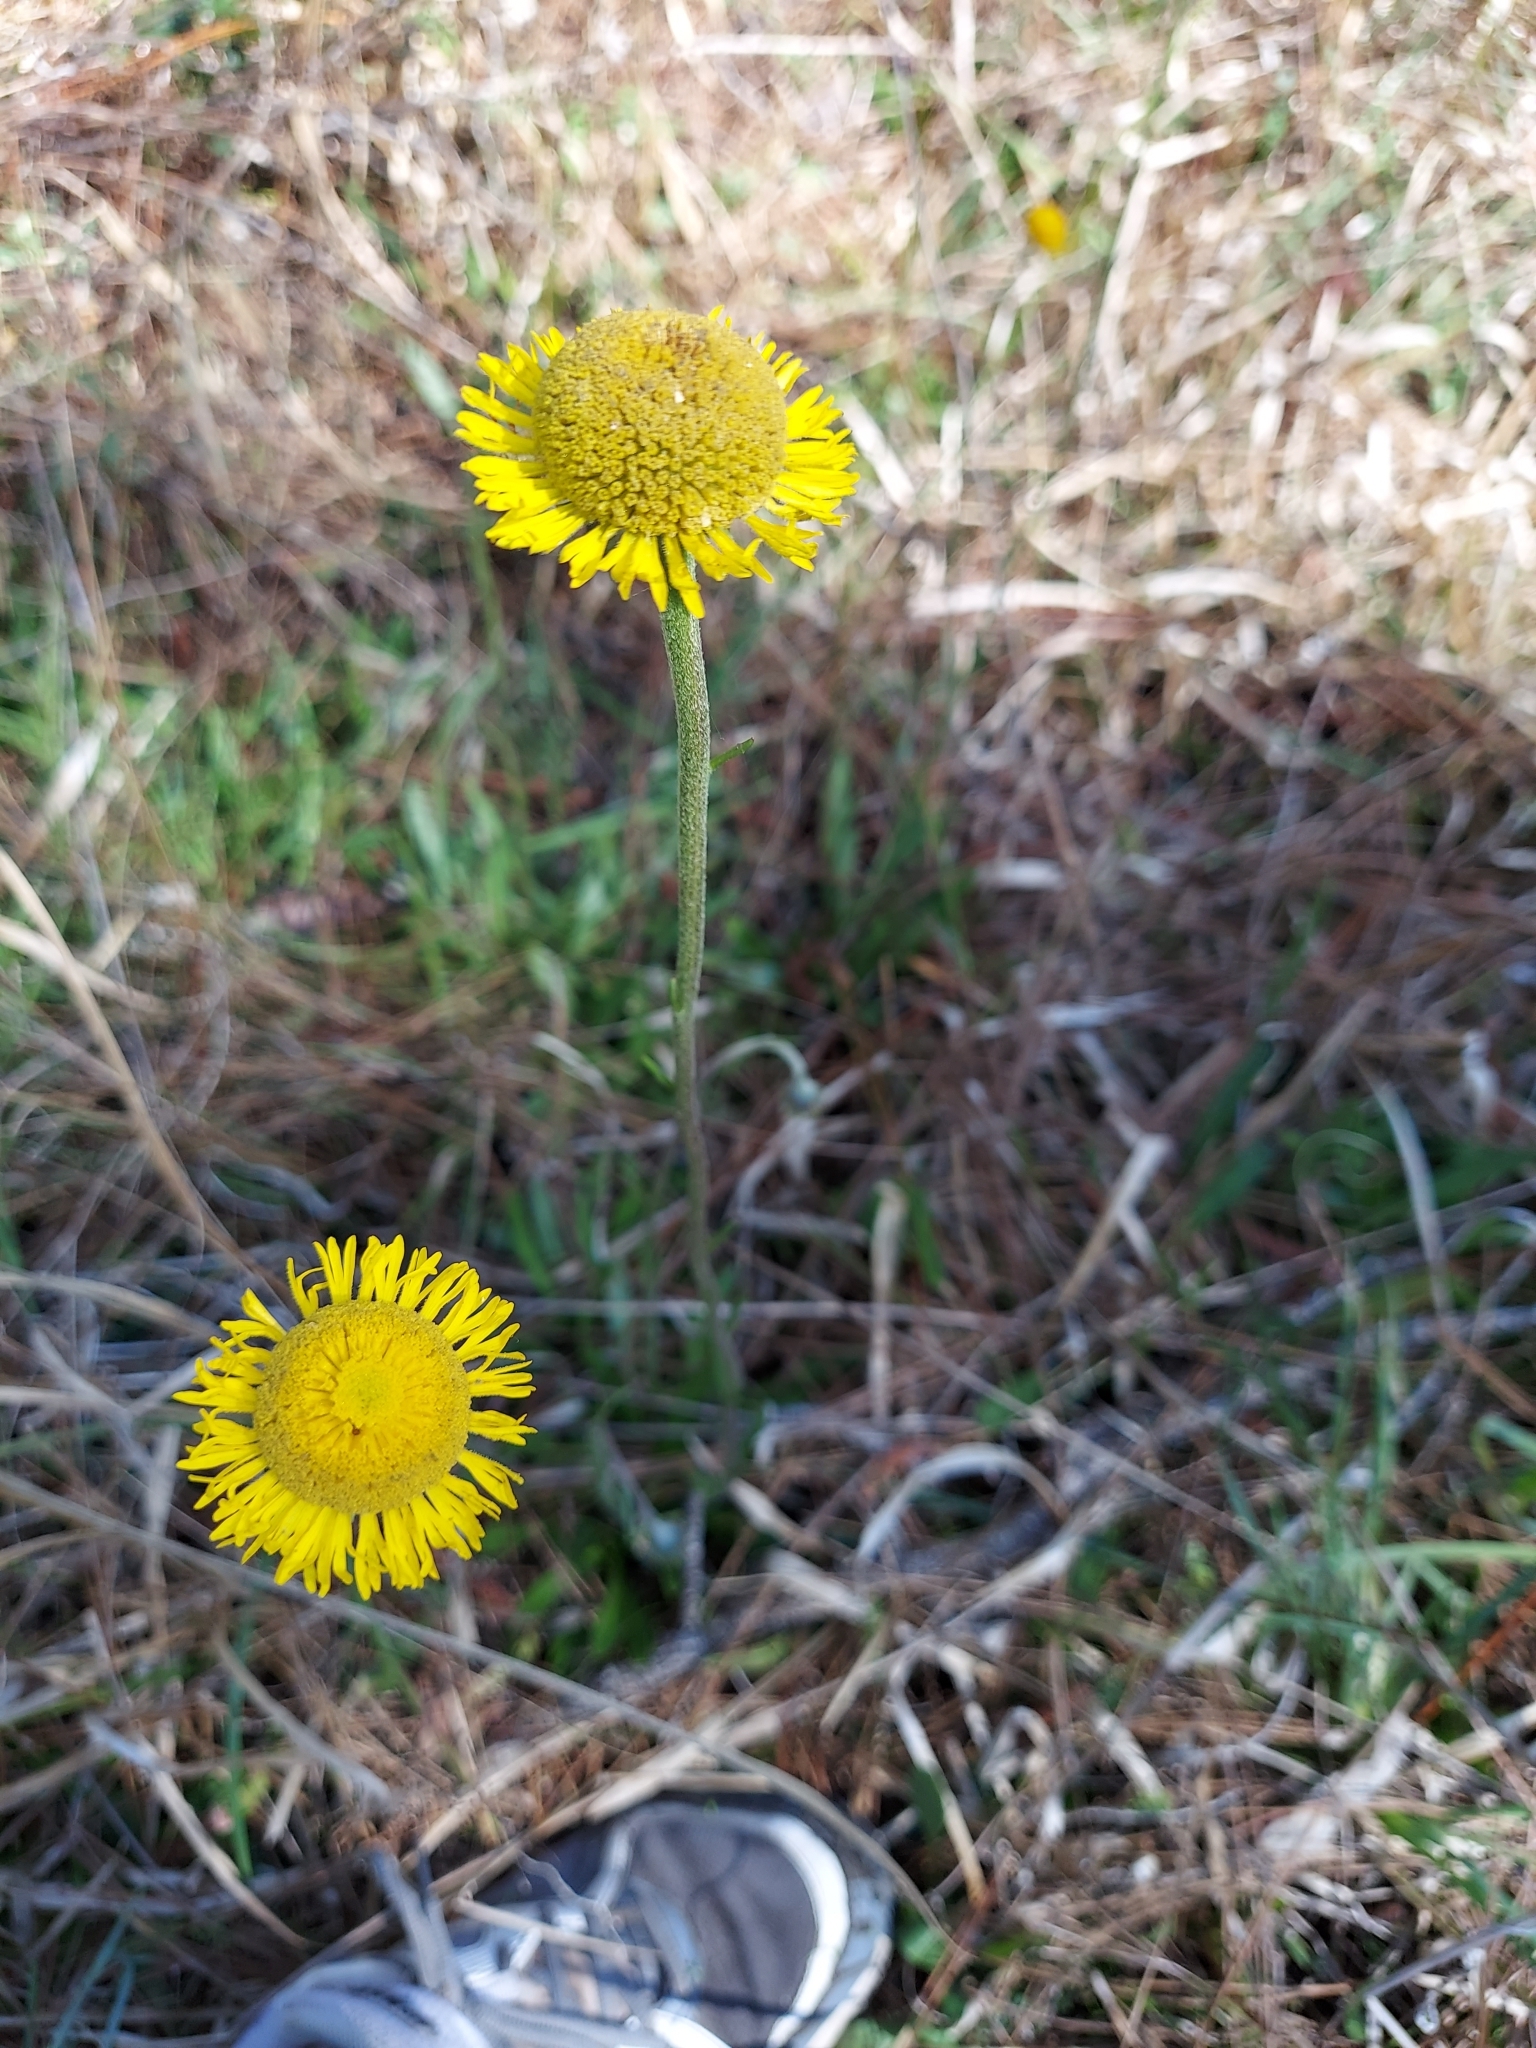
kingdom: Plantae
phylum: Tracheophyta
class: Magnoliopsida
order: Asterales
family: Asteraceae
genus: Helenium
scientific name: Helenium pinnatifidum
